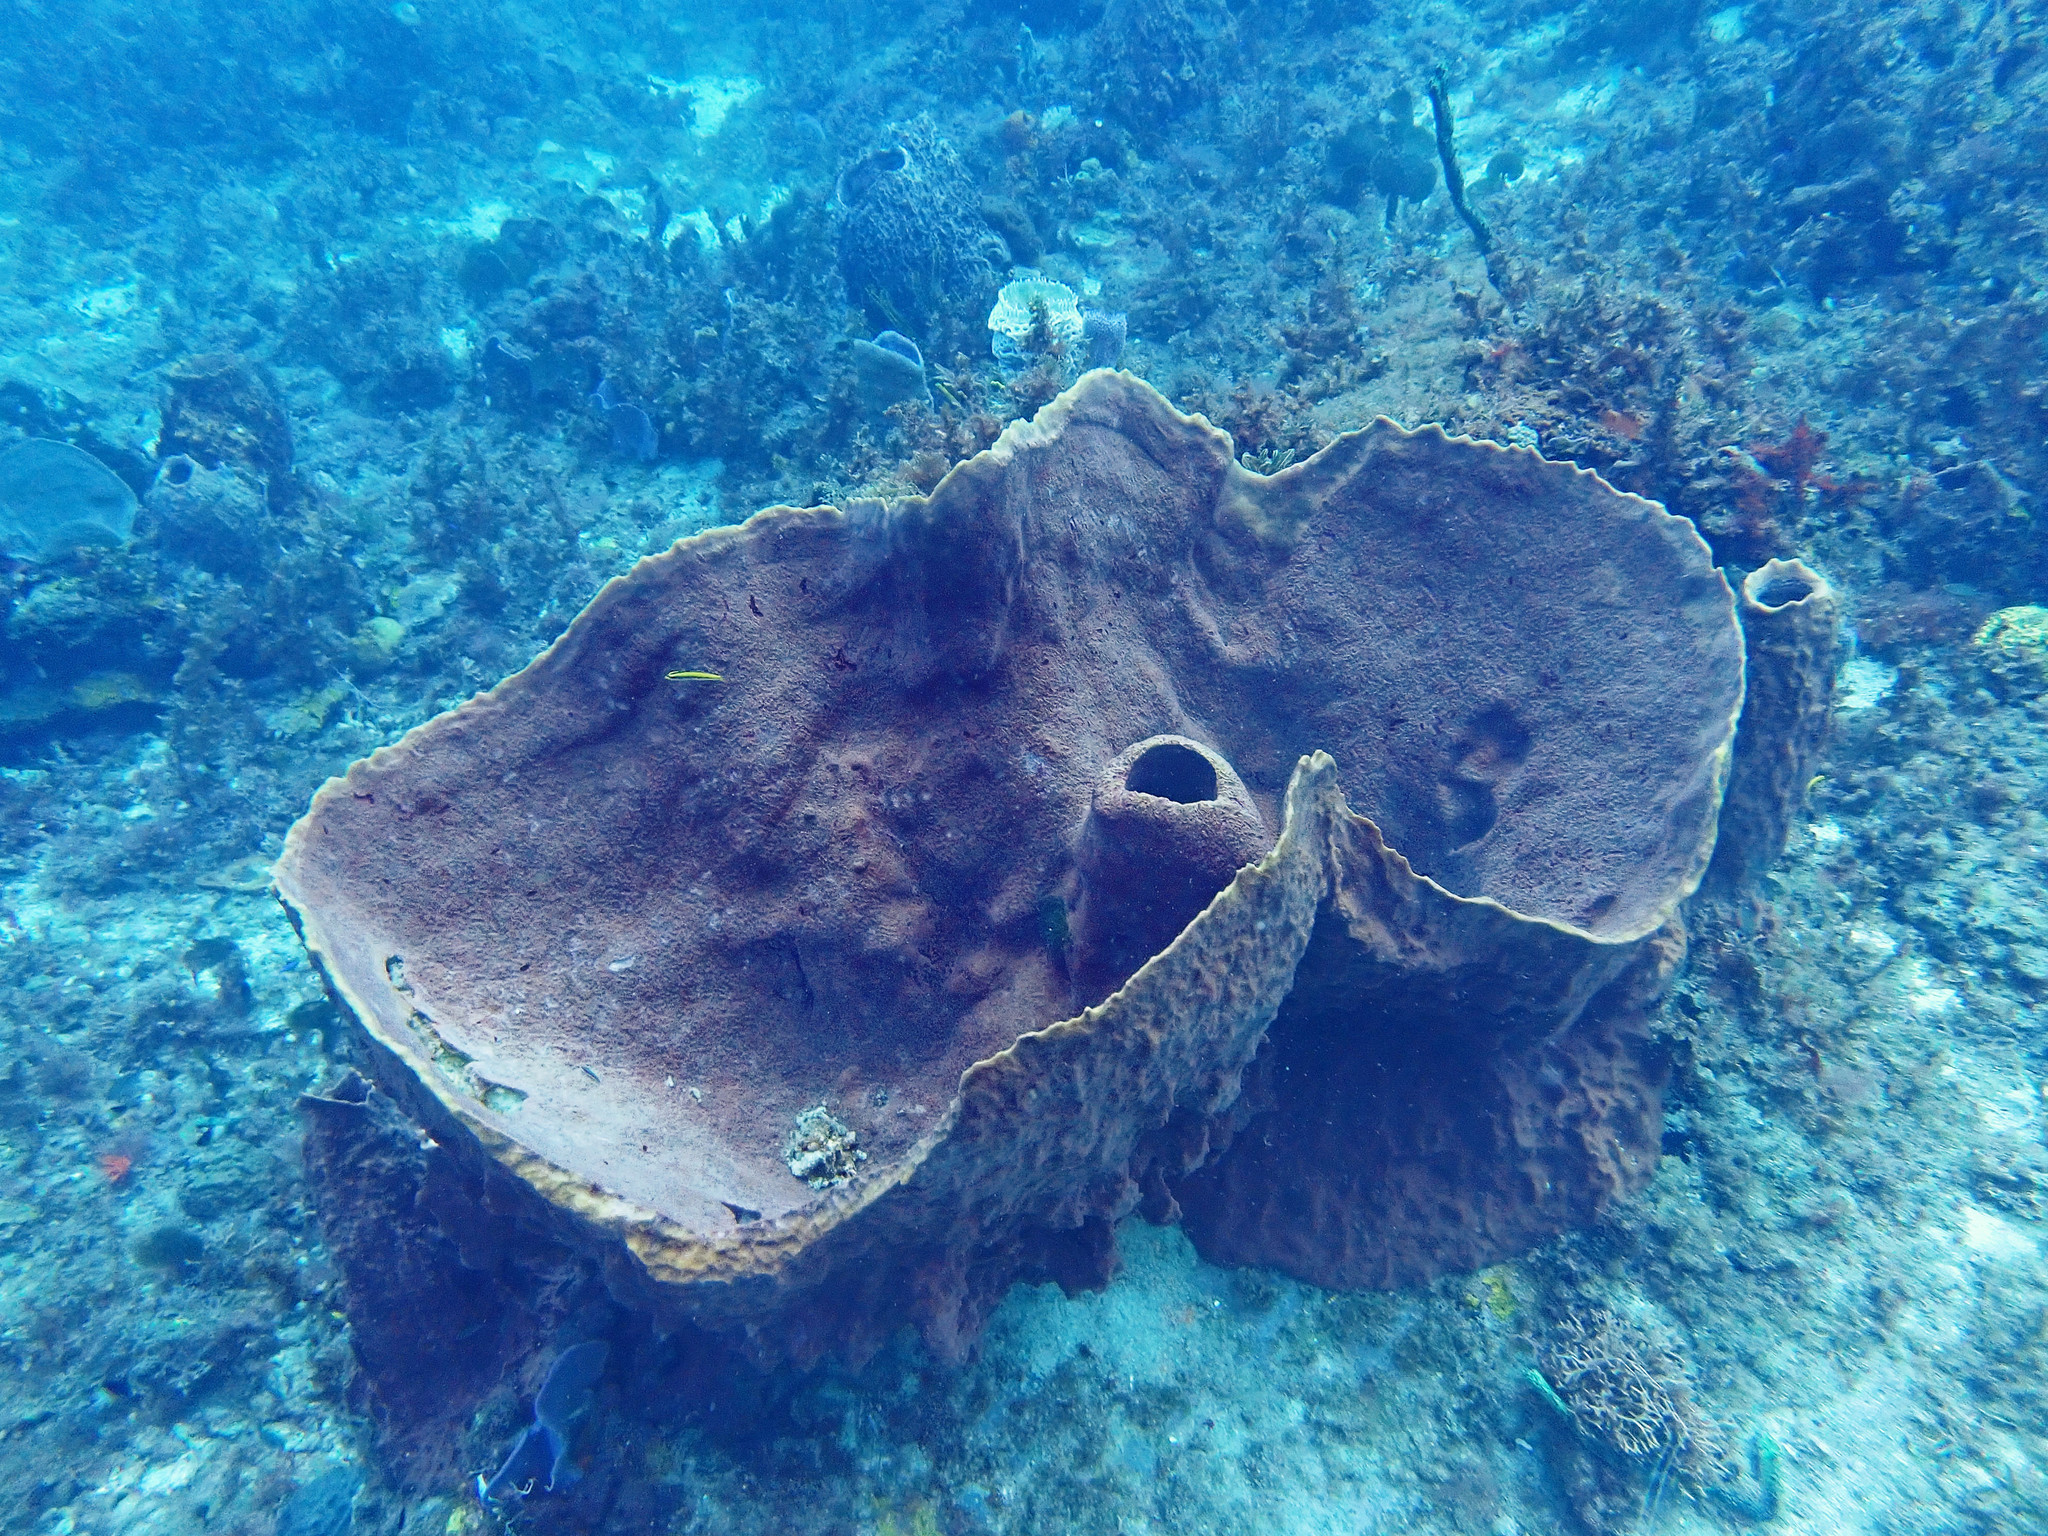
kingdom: Animalia
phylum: Porifera
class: Demospongiae
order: Haplosclerida
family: Petrosiidae
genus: Xestospongia
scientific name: Xestospongia muta
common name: Giant barrel sponge
